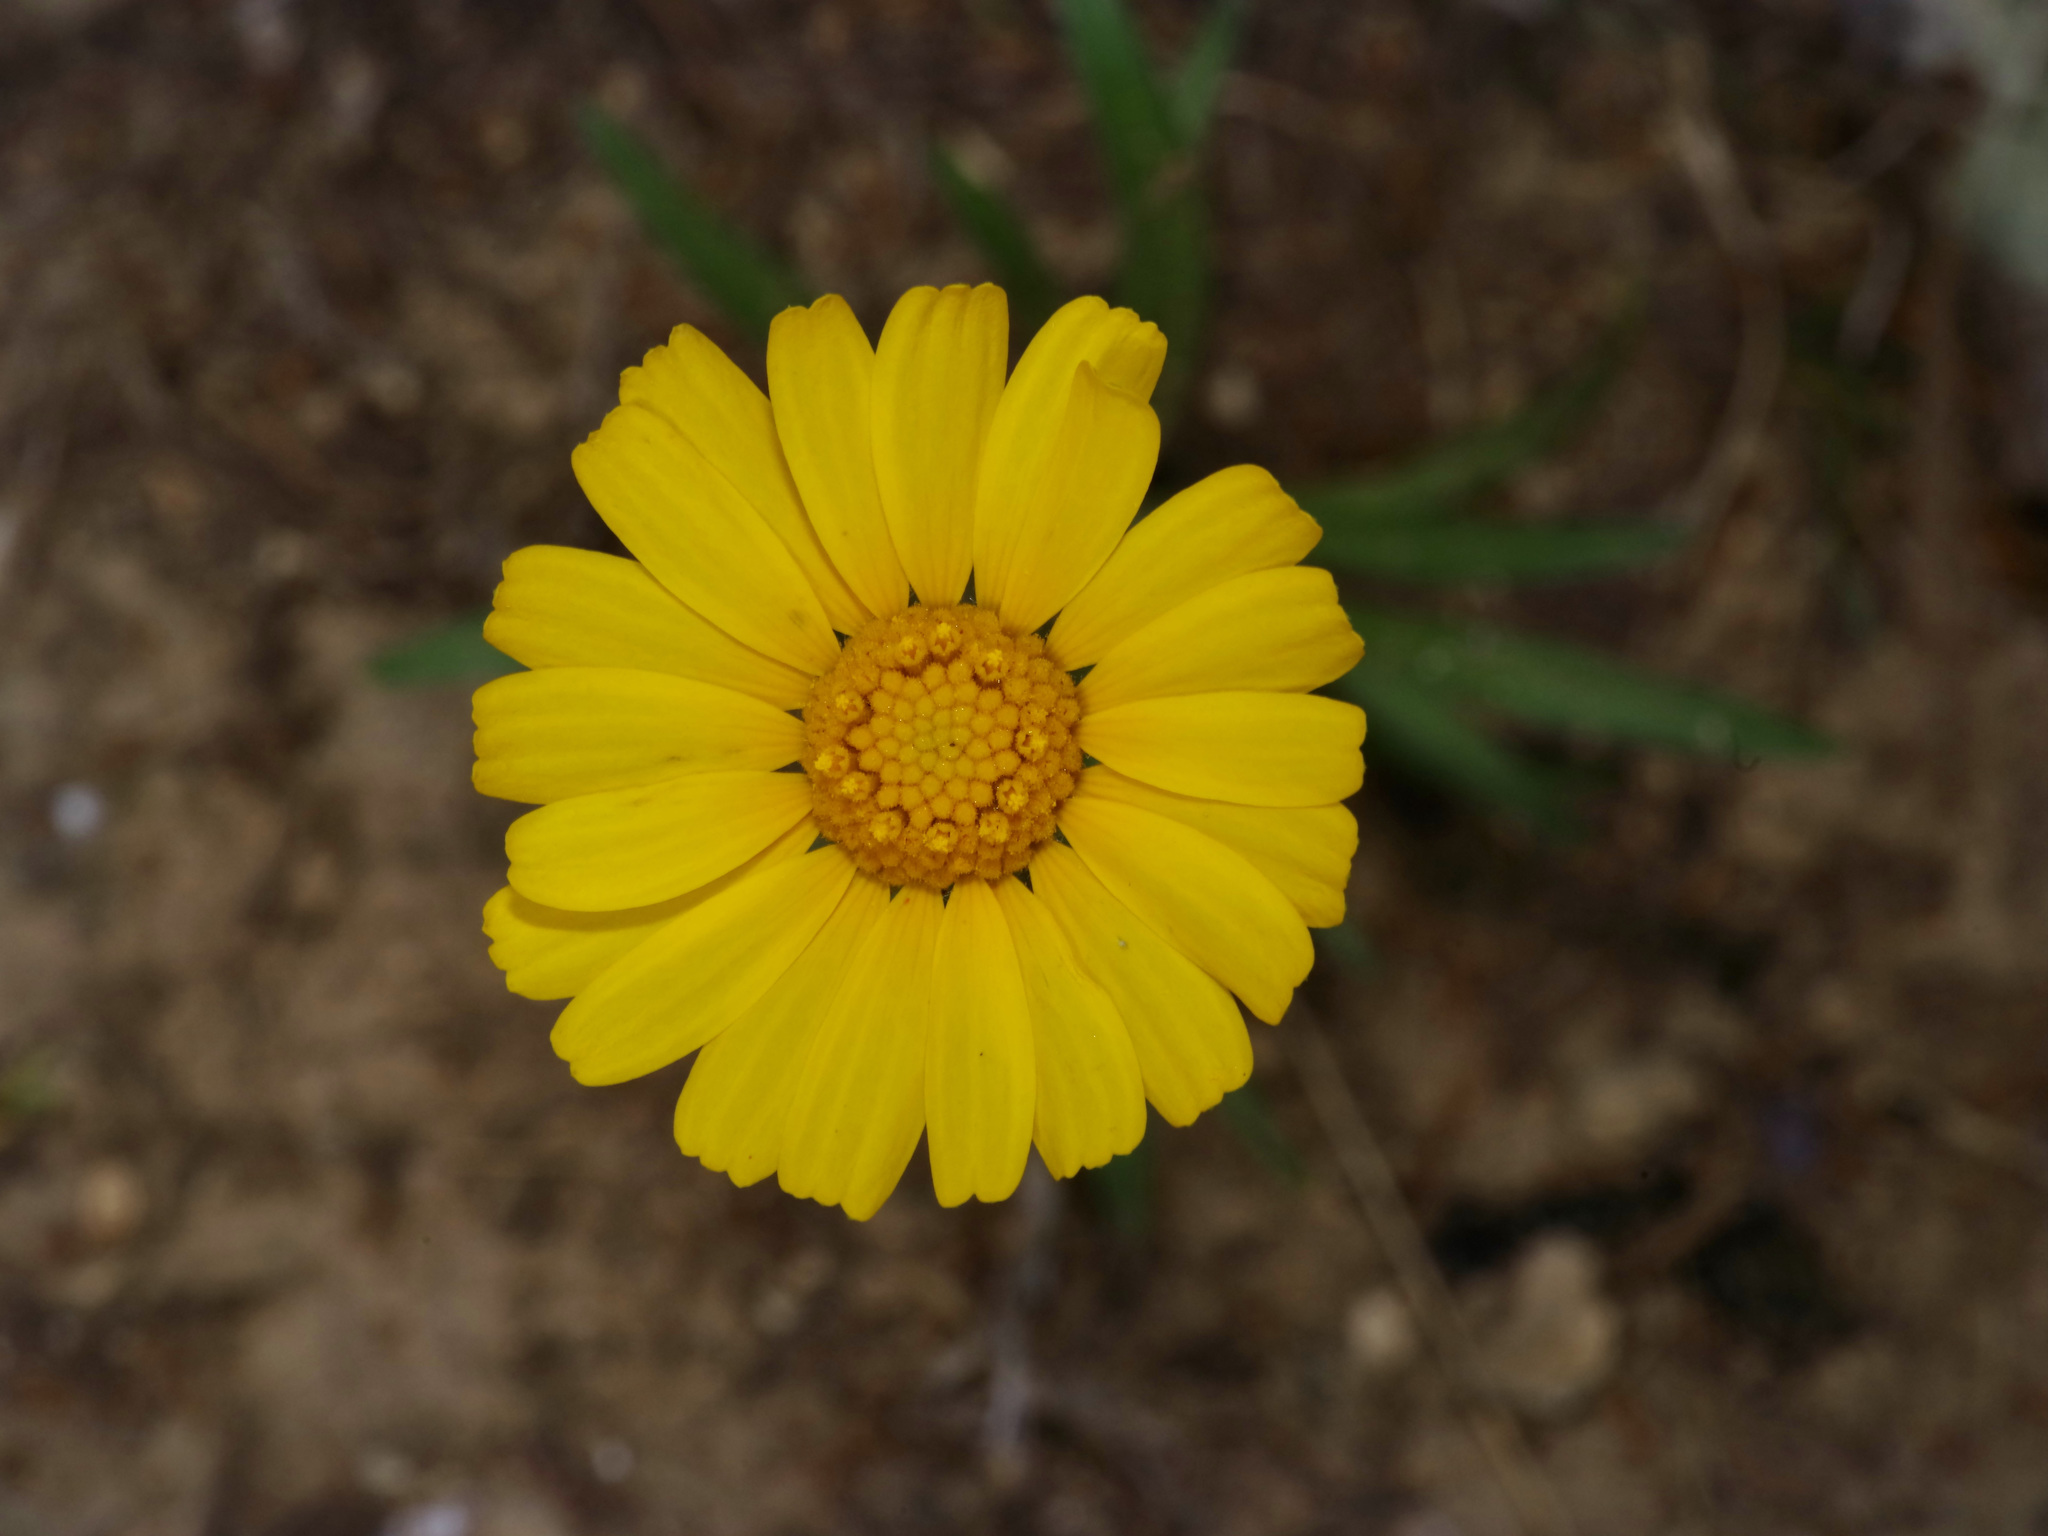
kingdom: Plantae
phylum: Tracheophyta
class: Magnoliopsida
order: Asterales
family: Asteraceae
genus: Tetraneuris
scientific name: Tetraneuris scaposa
